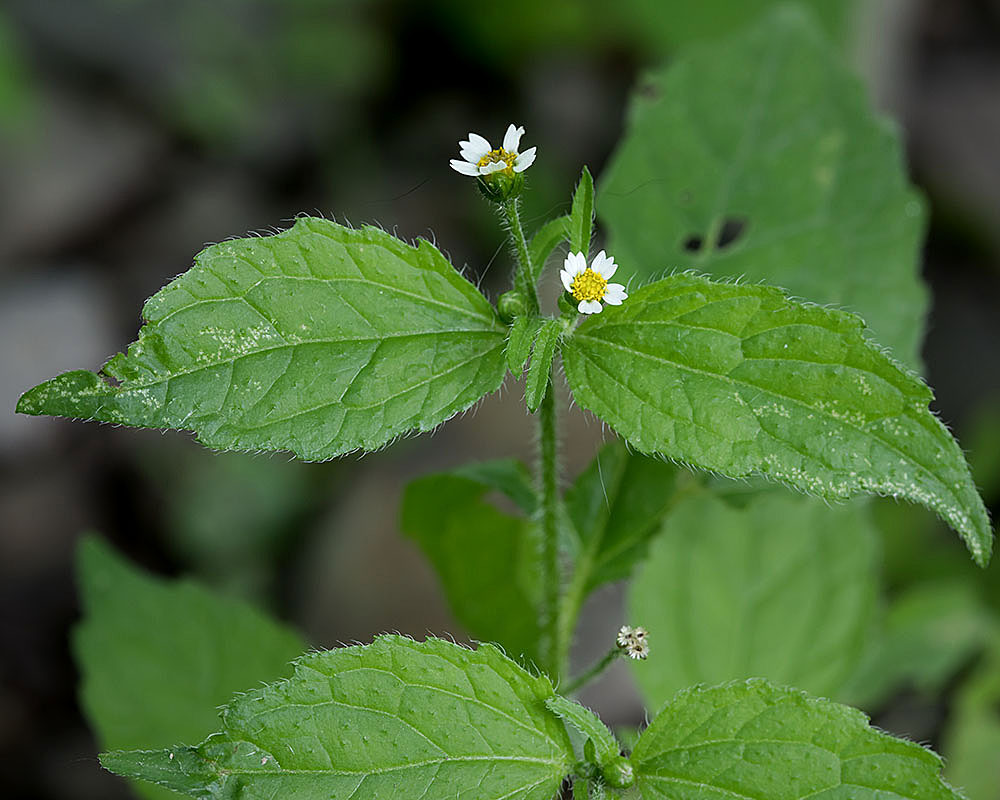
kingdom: Plantae
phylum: Tracheophyta
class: Magnoliopsida
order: Asterales
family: Asteraceae
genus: Galinsoga
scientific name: Galinsoga quadriradiata
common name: Shaggy soldier
